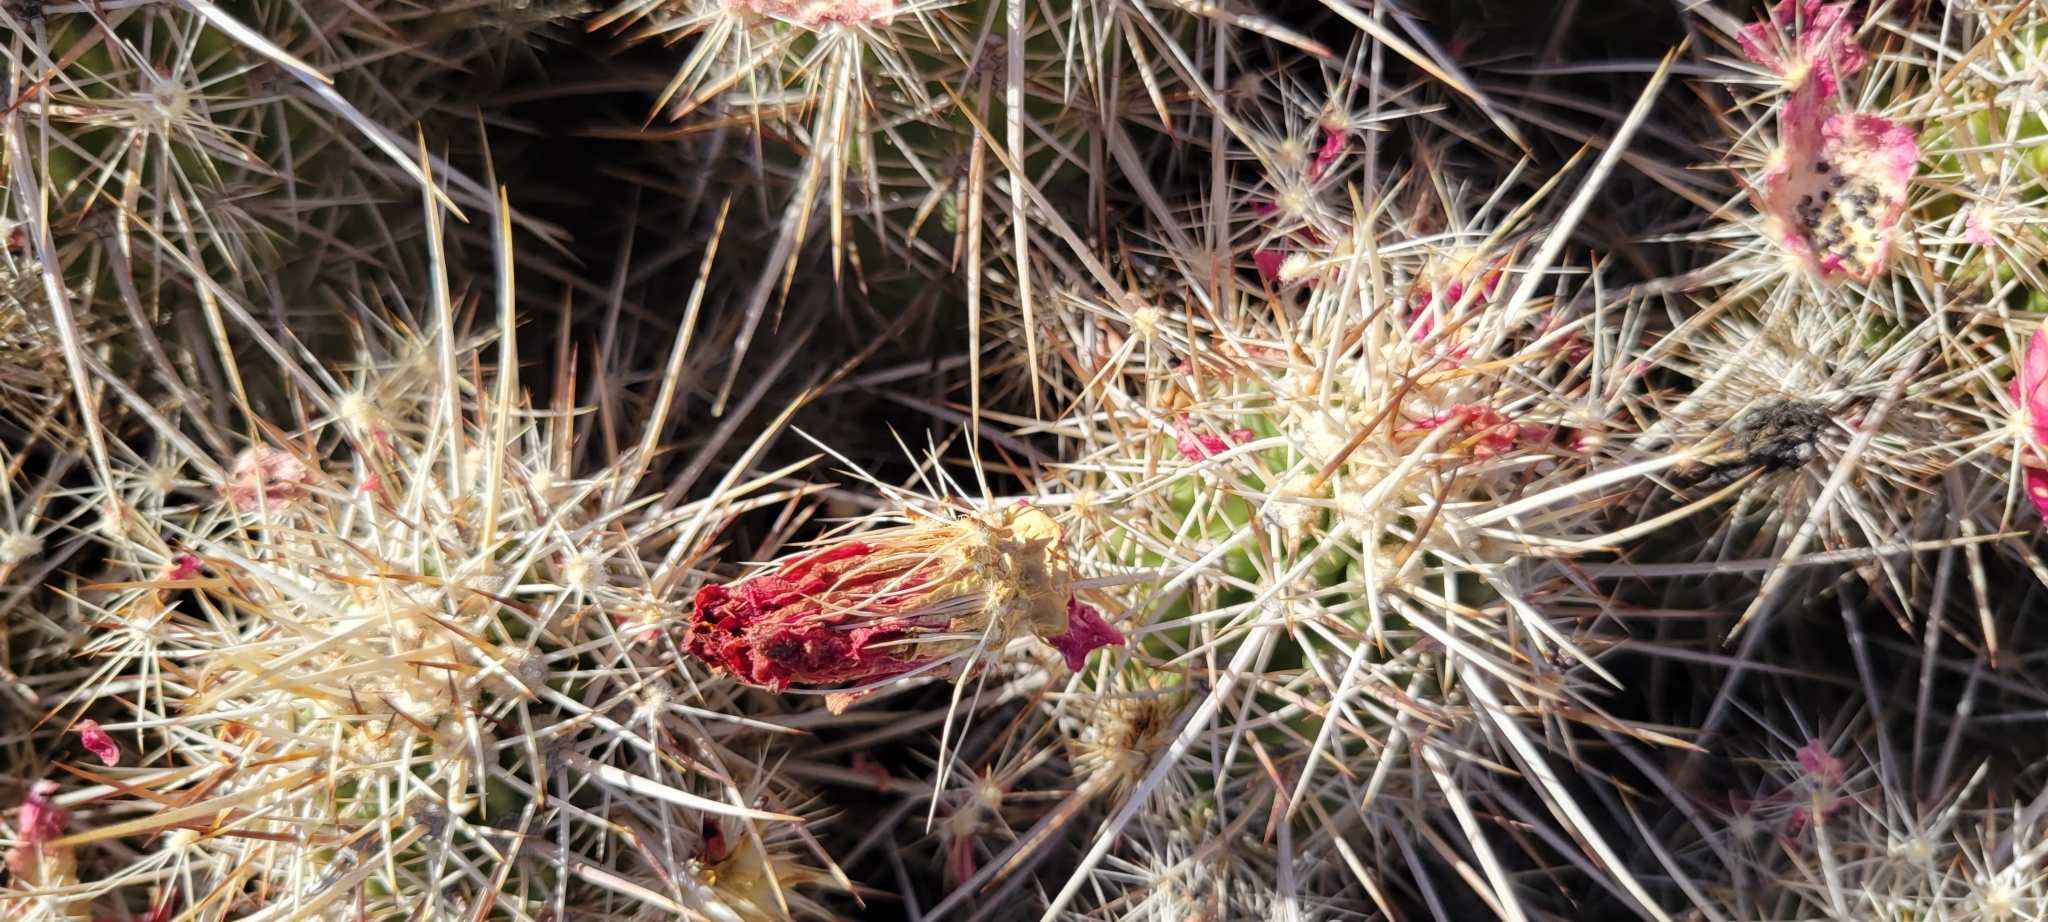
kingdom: Plantae
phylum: Tracheophyta
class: Magnoliopsida
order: Caryophyllales
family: Cactaceae
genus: Echinocereus
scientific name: Echinocereus engelmannii
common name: Engelmann's hedgehog cactus
